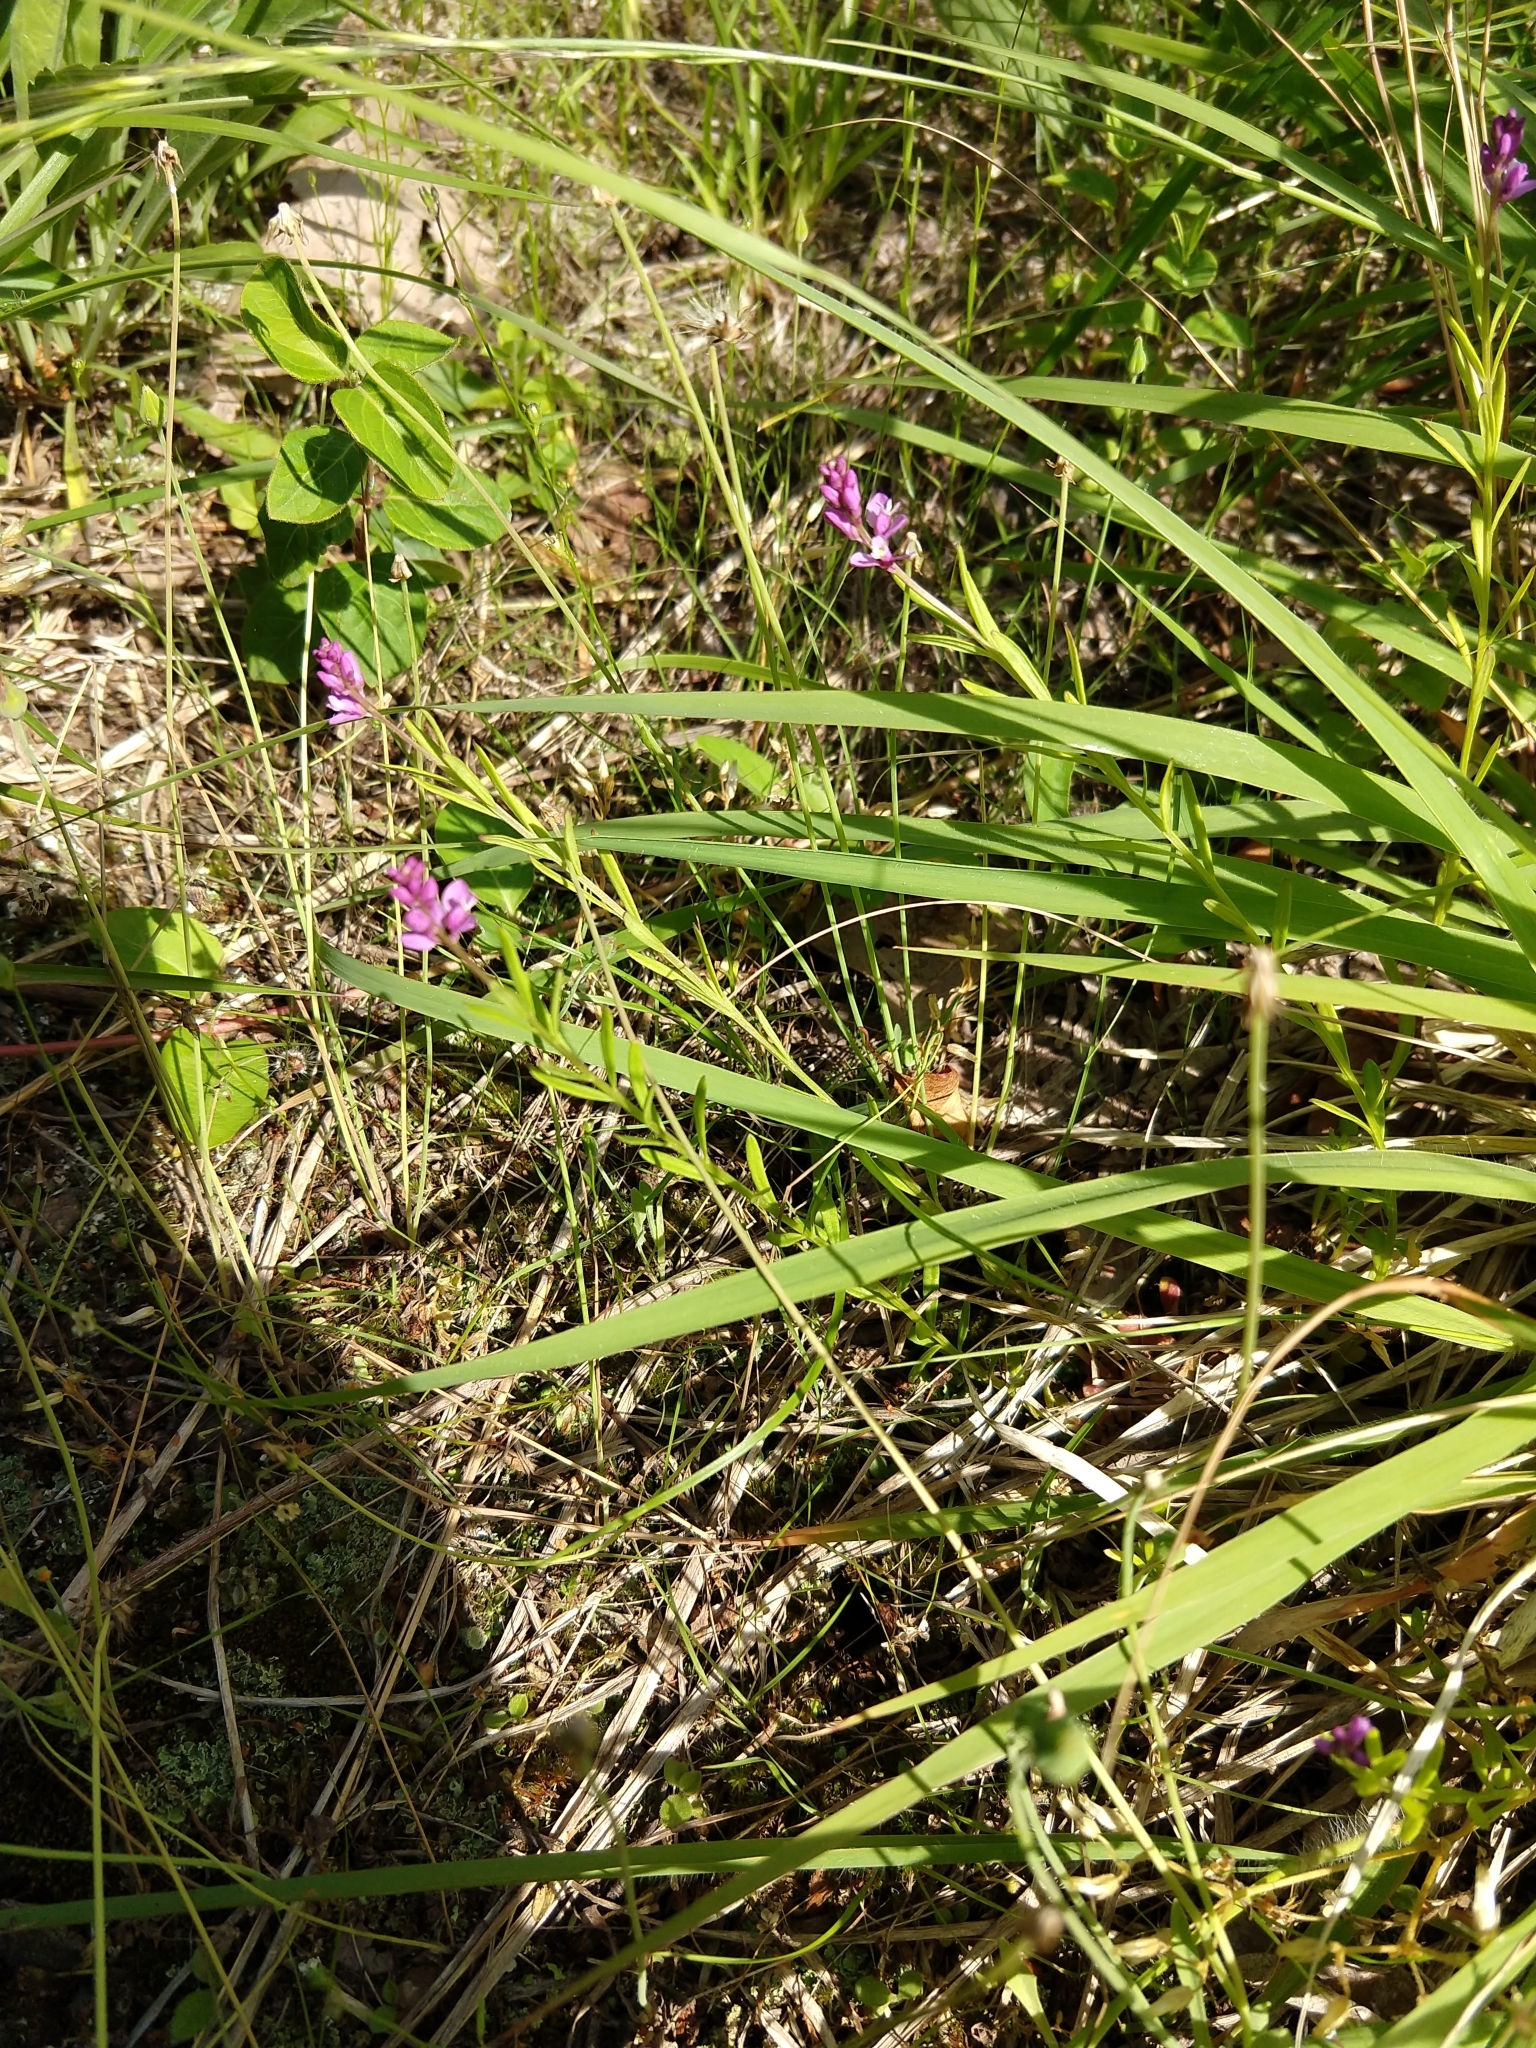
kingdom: Plantae
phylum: Tracheophyta
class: Magnoliopsida
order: Fabales
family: Polygalaceae
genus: Polygala
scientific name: Polygala polygama
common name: Bitter milkwort
